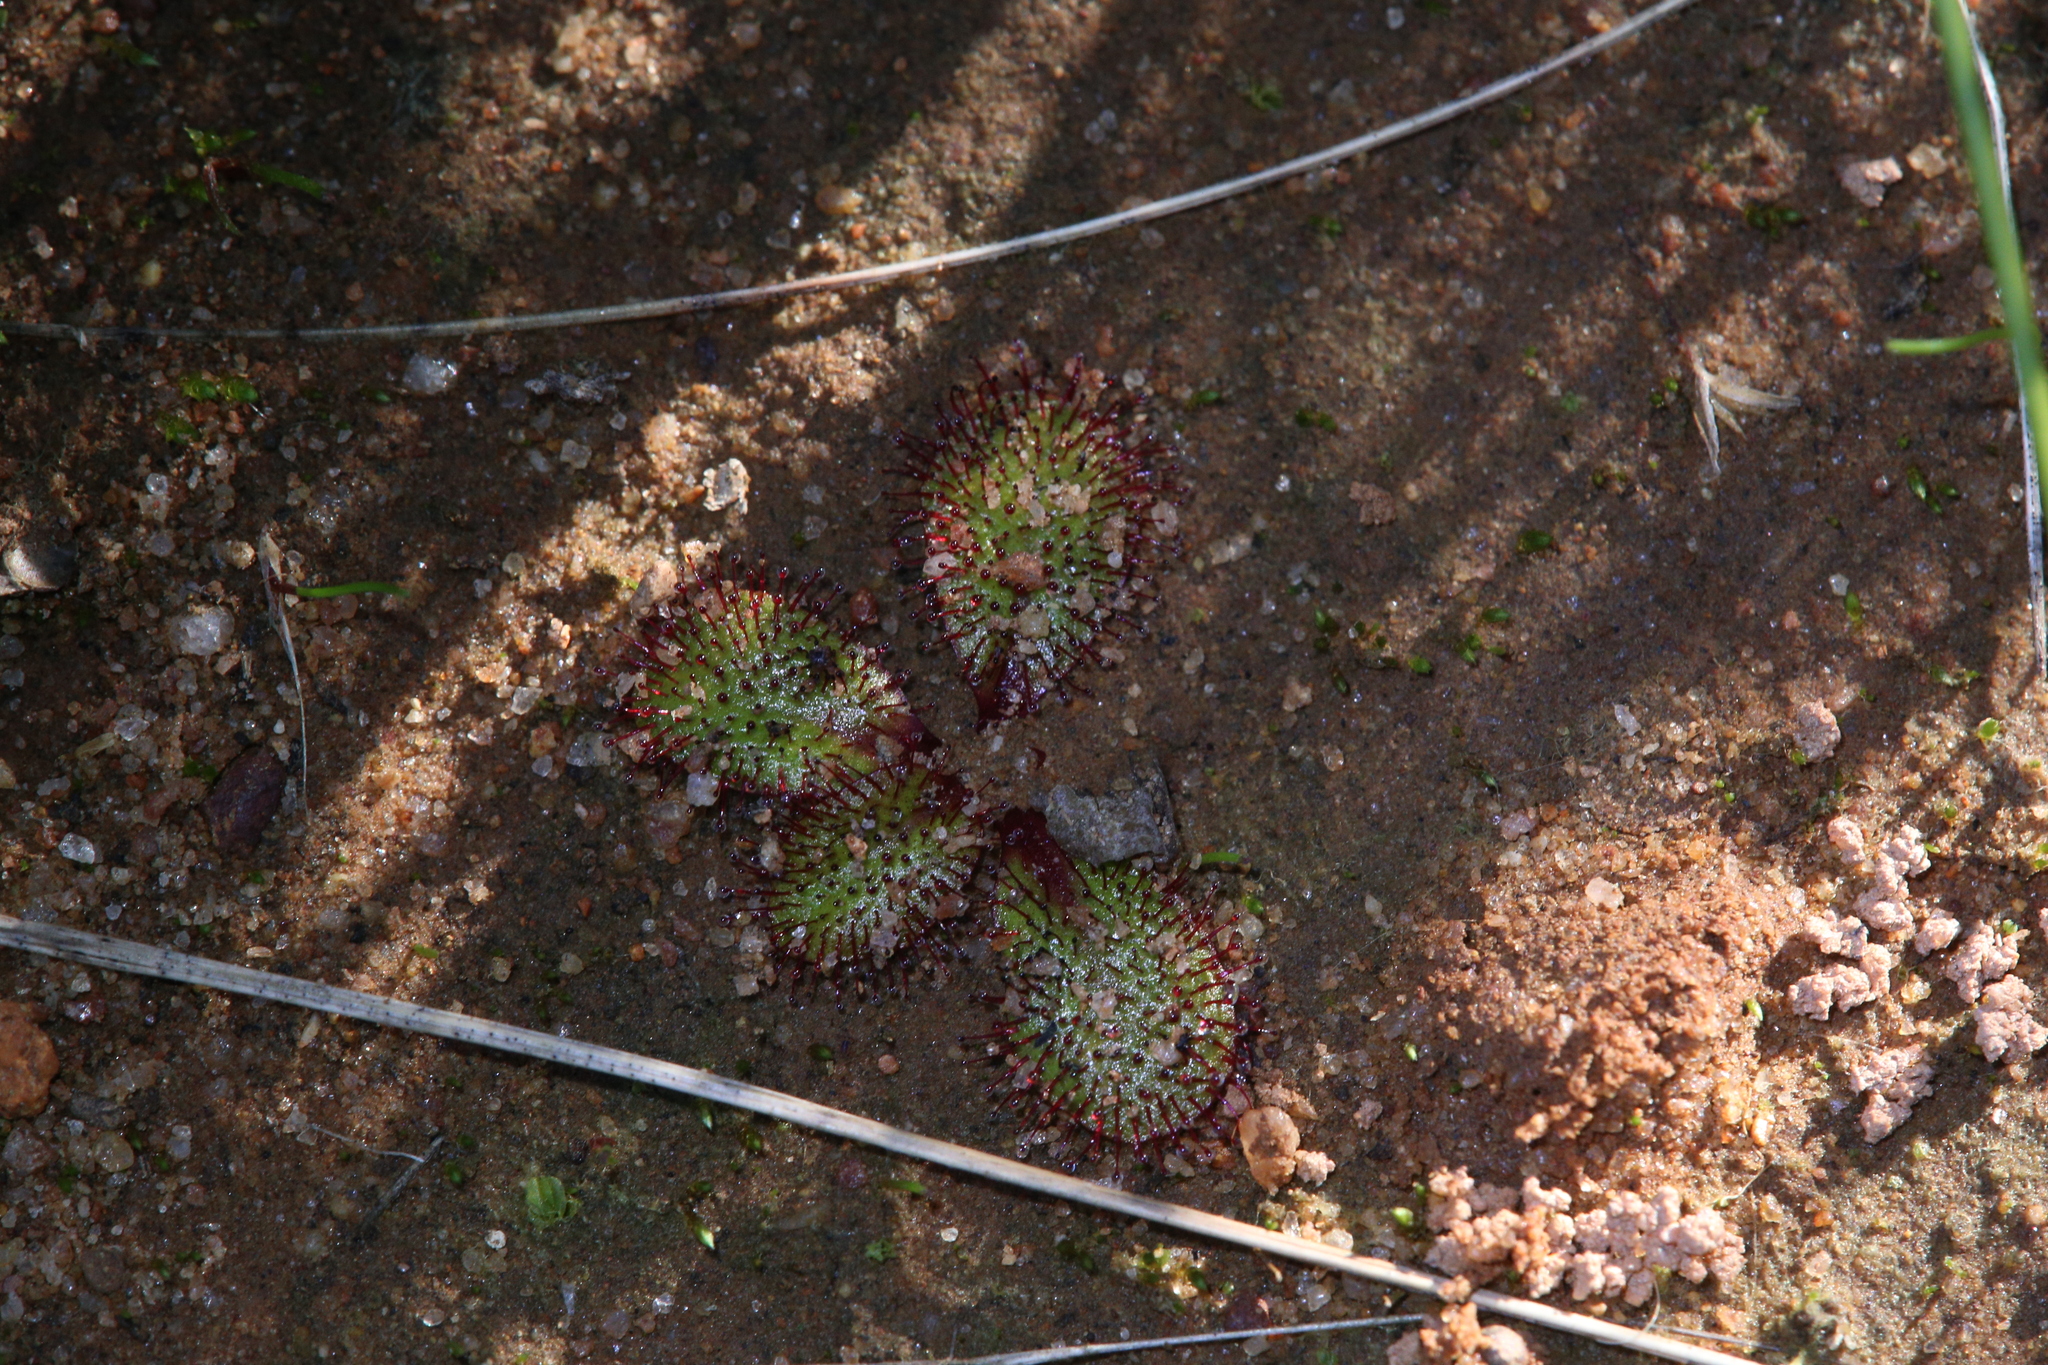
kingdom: Plantae
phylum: Tracheophyta
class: Magnoliopsida
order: Caryophyllales
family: Droseraceae
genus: Drosera
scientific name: Drosera orbiculata
